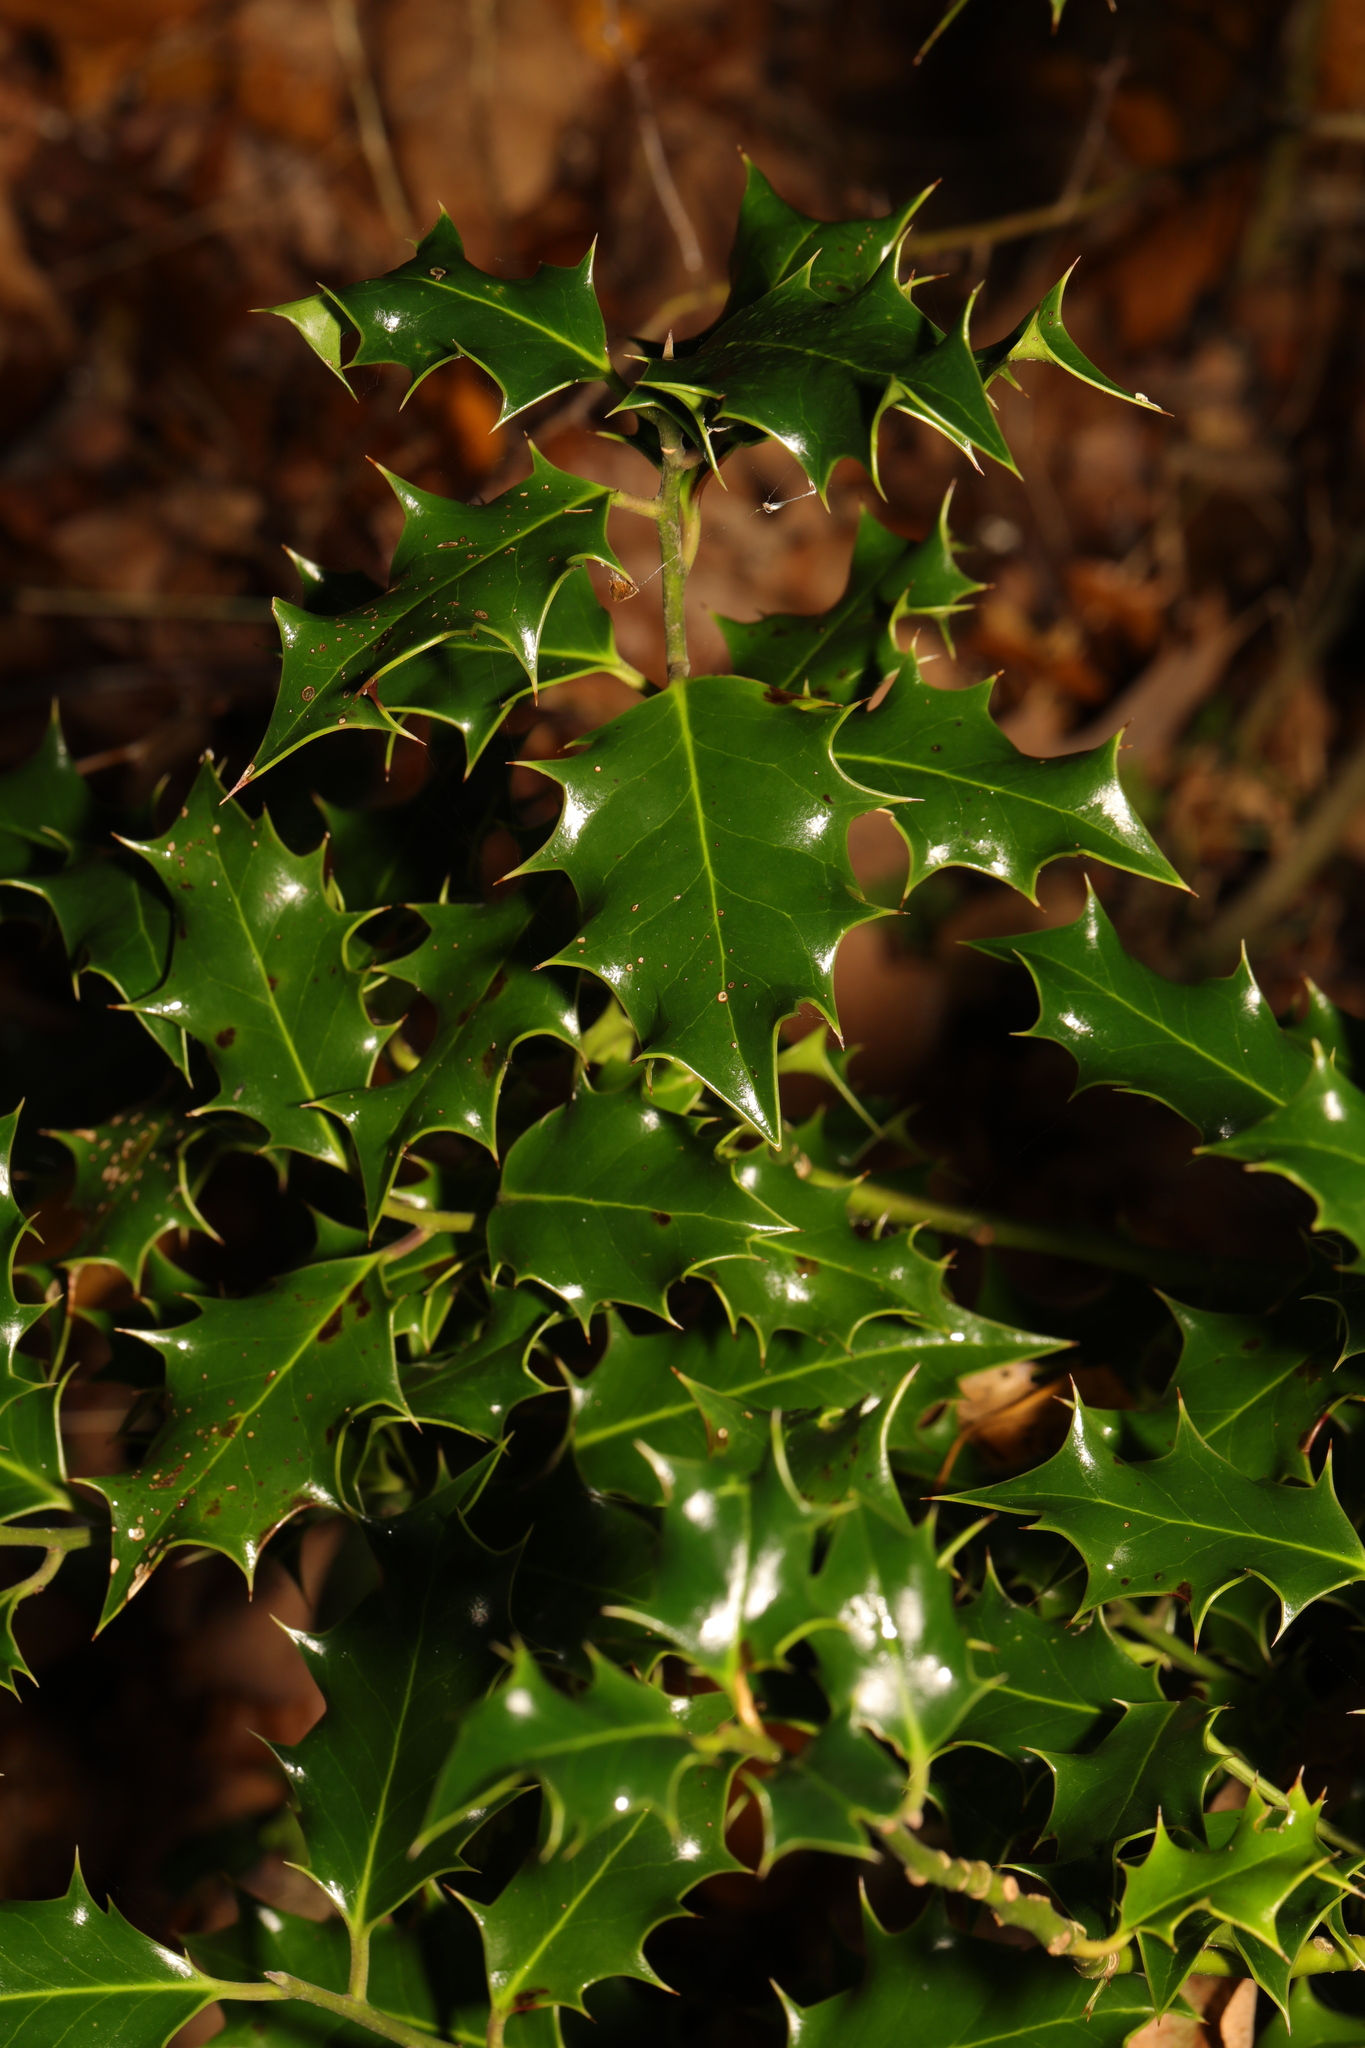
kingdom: Plantae
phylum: Tracheophyta
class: Magnoliopsida
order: Aquifoliales
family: Aquifoliaceae
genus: Ilex
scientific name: Ilex aquifolium
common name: English holly
